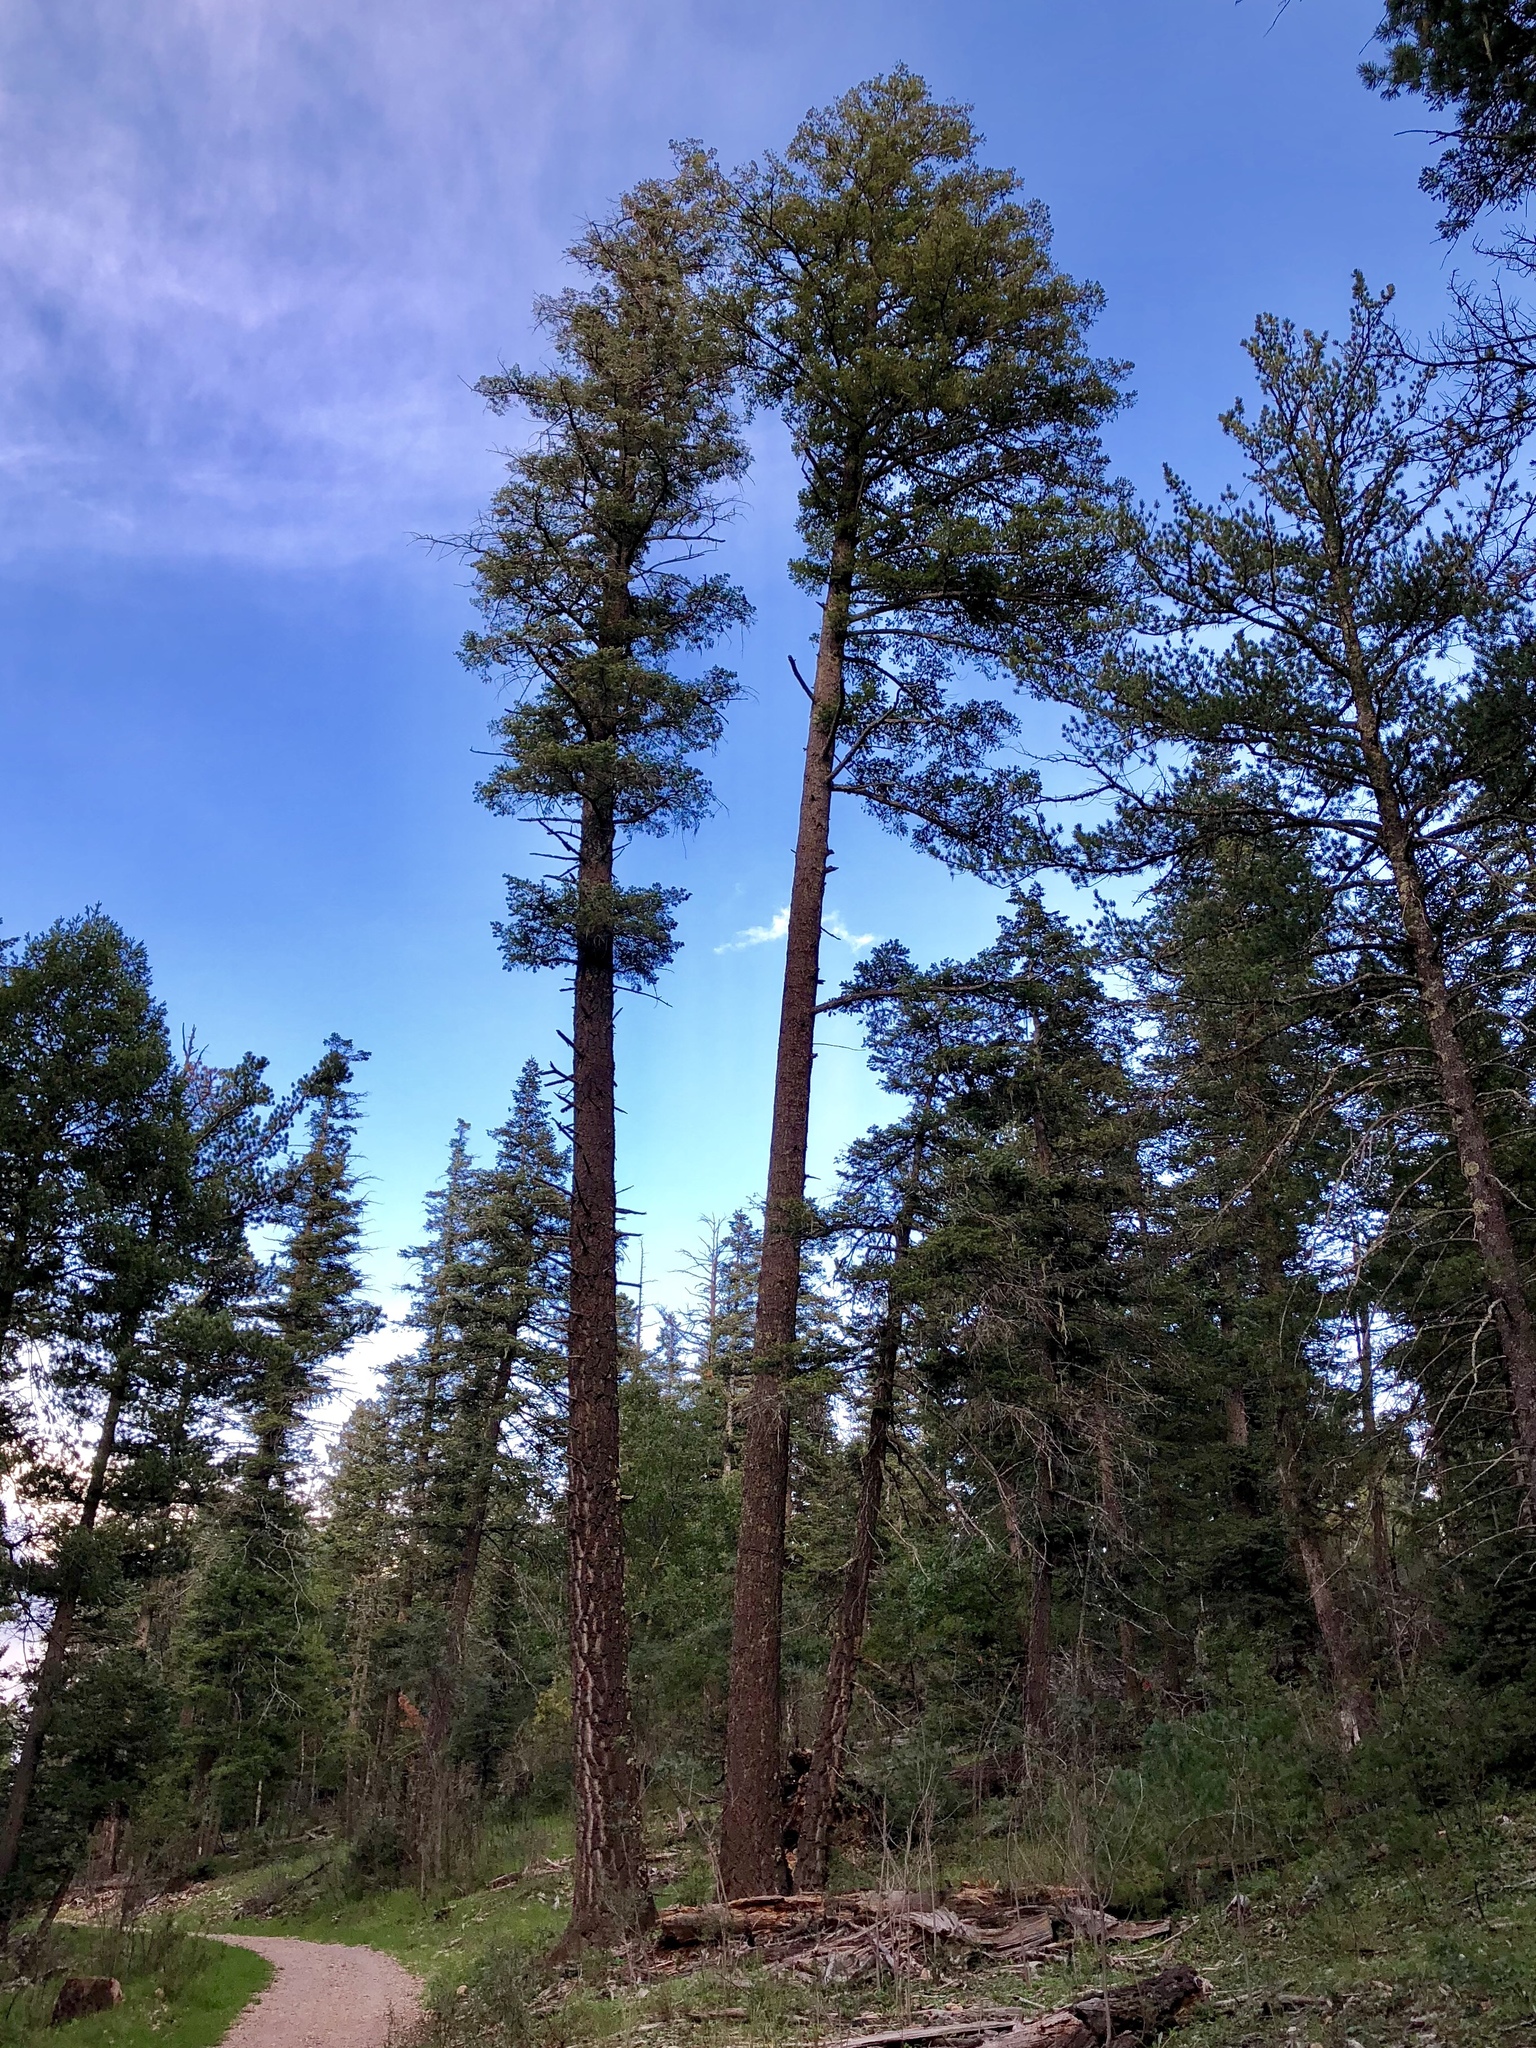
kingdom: Plantae
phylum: Tracheophyta
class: Pinopsida
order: Pinales
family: Pinaceae
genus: Pinus
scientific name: Pinus ponderosa
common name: Western yellow-pine
